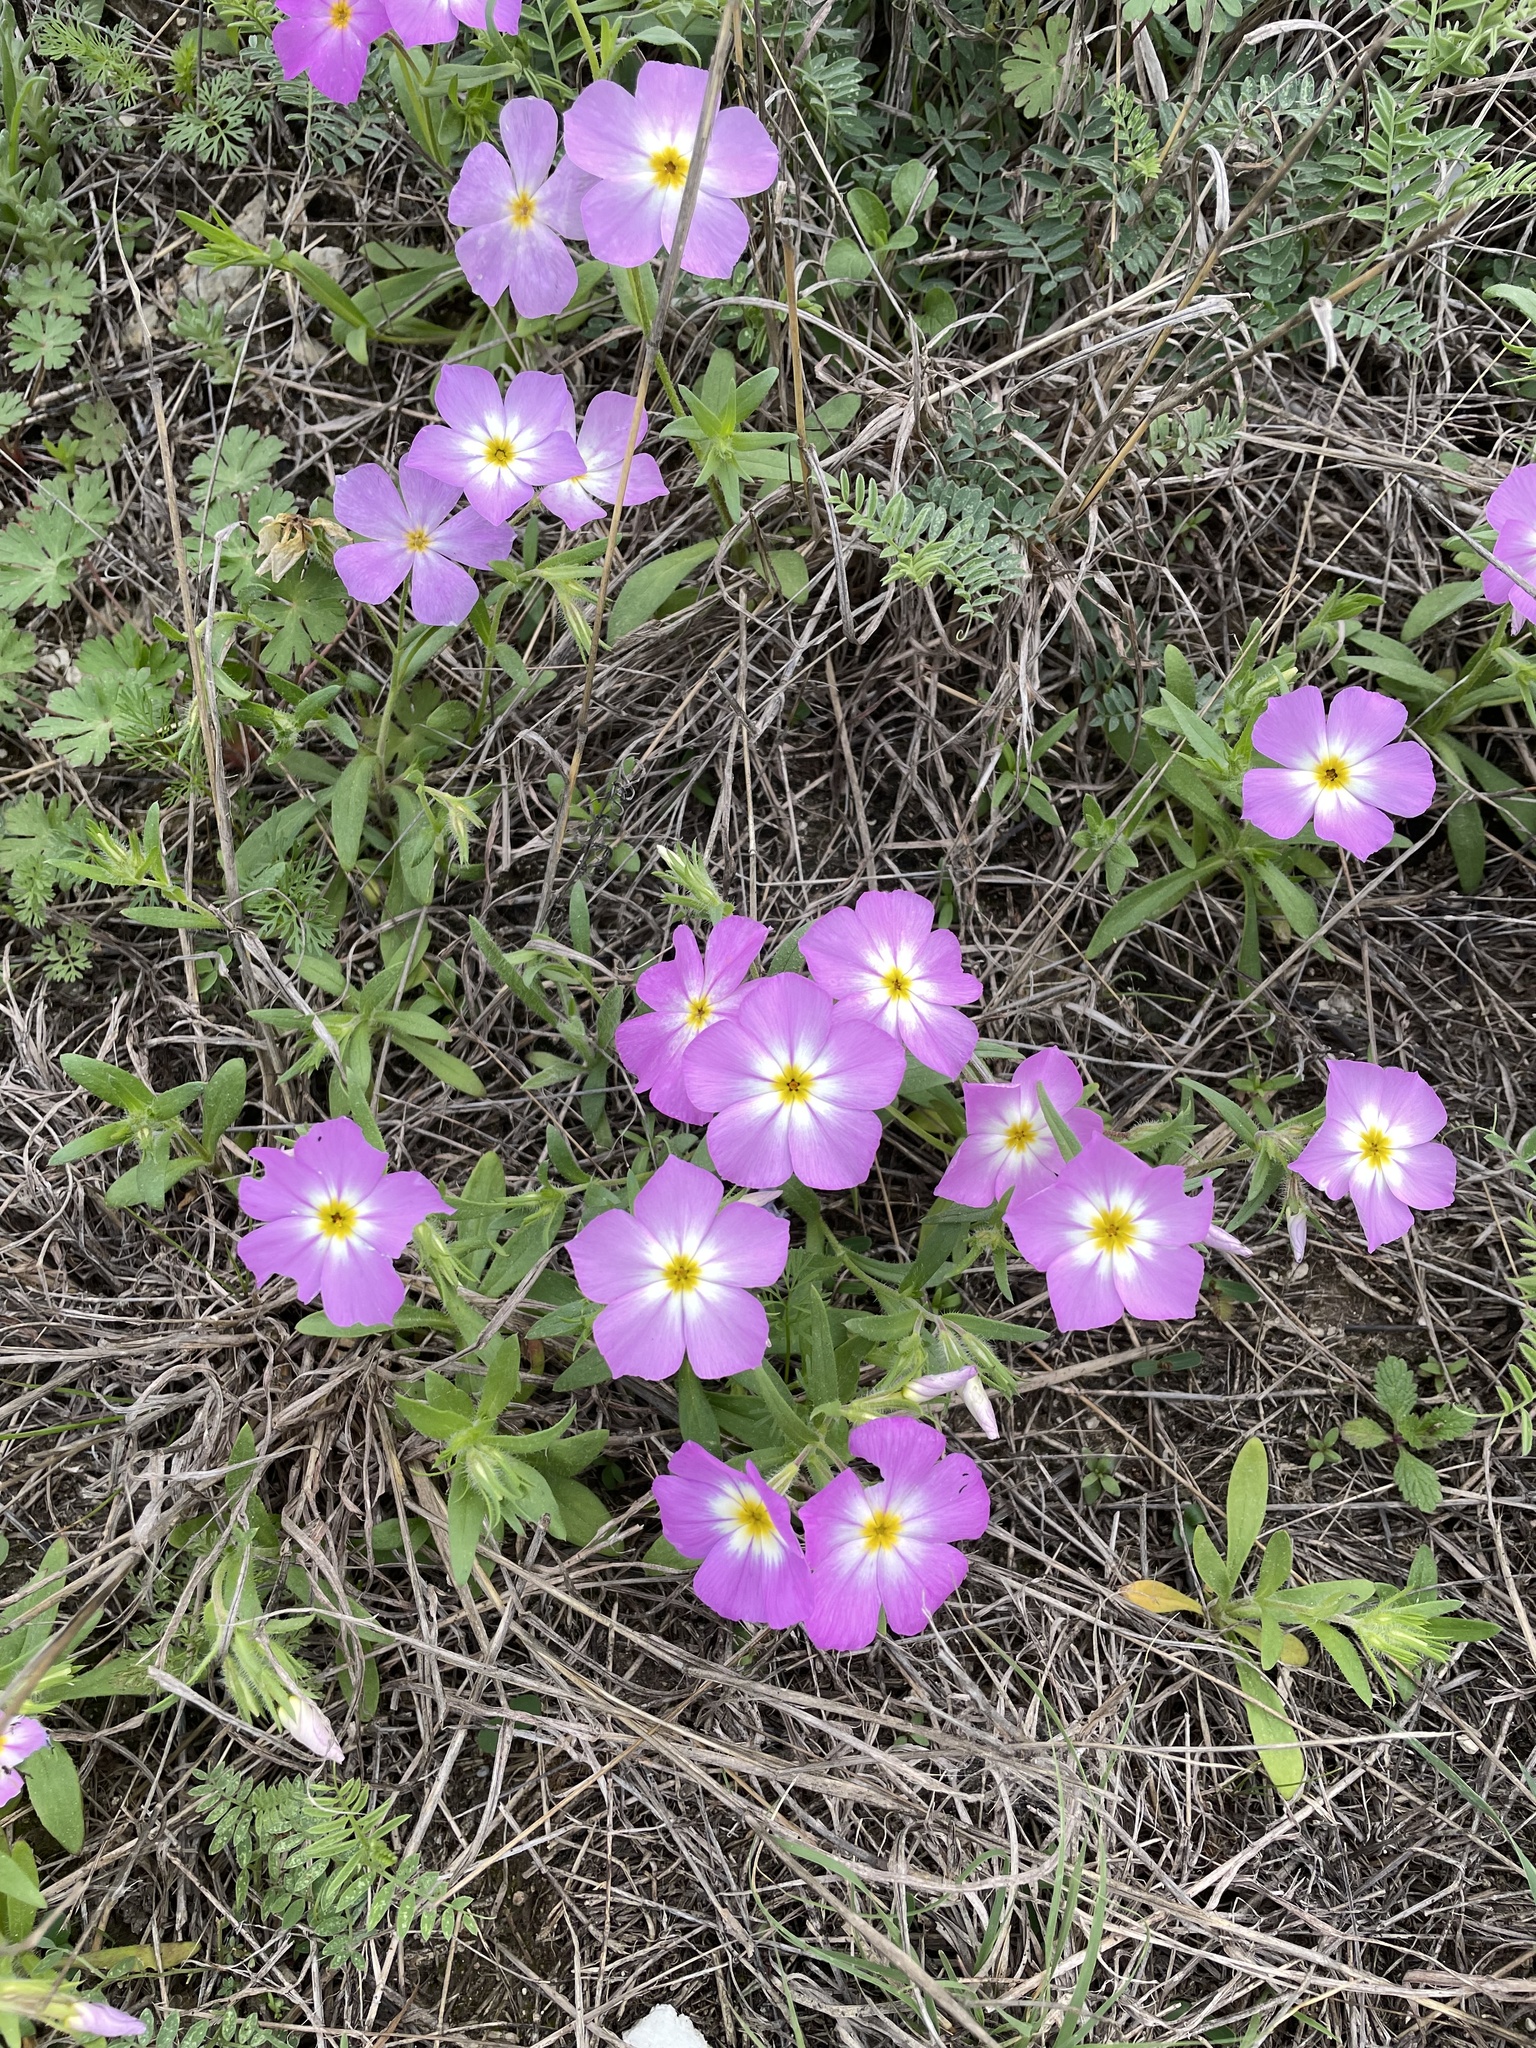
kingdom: Plantae
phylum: Tracheophyta
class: Magnoliopsida
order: Ericales
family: Polemoniaceae
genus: Phlox
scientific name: Phlox roemeriana
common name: Roemer's phlox
